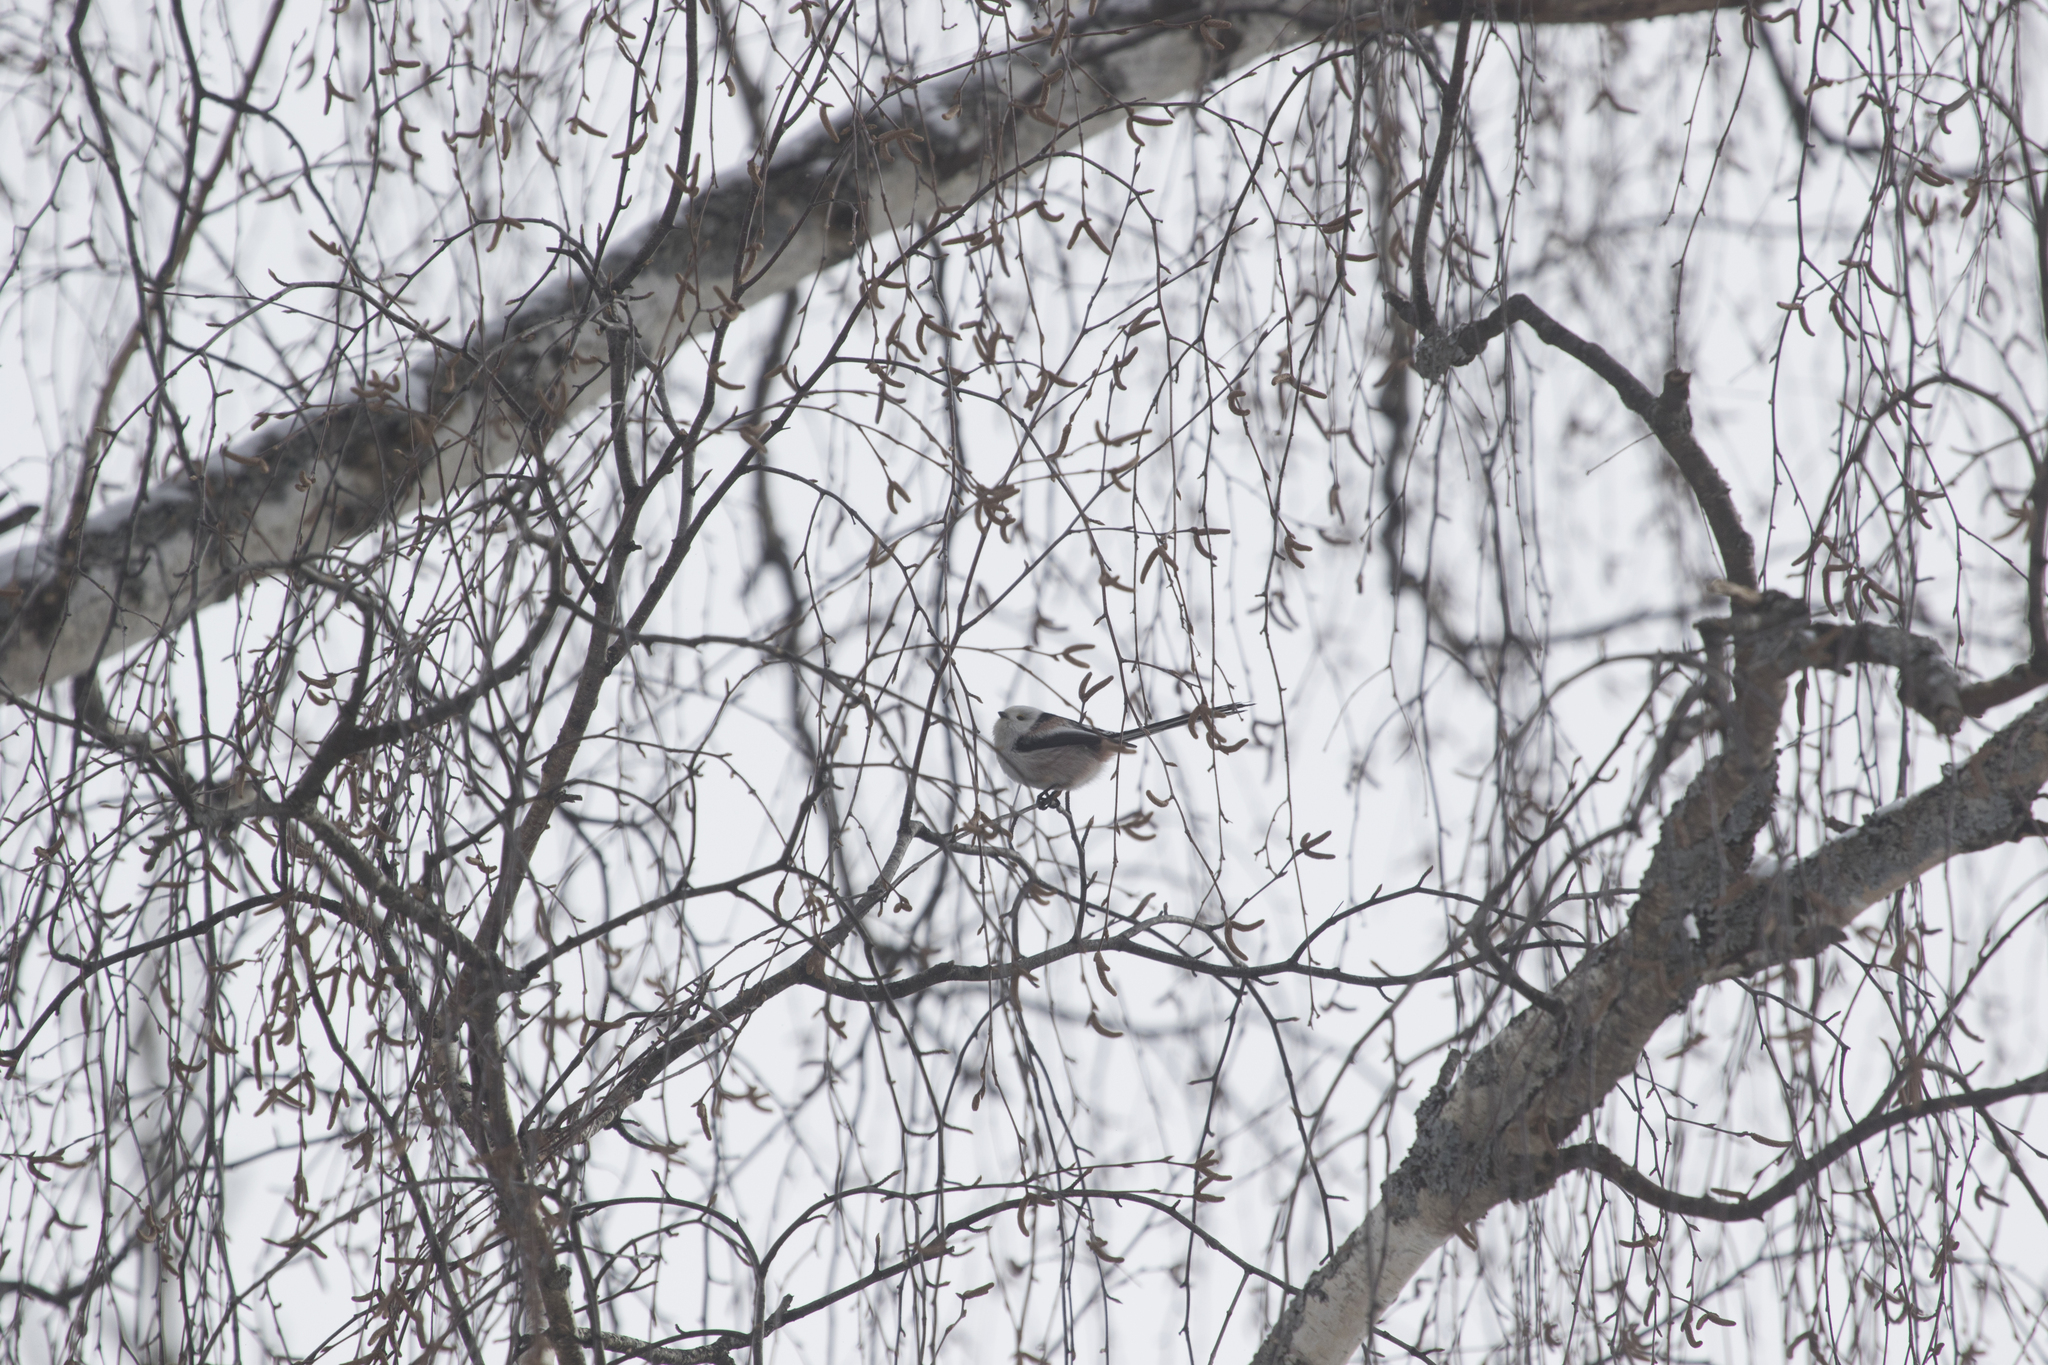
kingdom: Animalia
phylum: Chordata
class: Aves
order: Passeriformes
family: Aegithalidae
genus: Aegithalos
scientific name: Aegithalos caudatus
